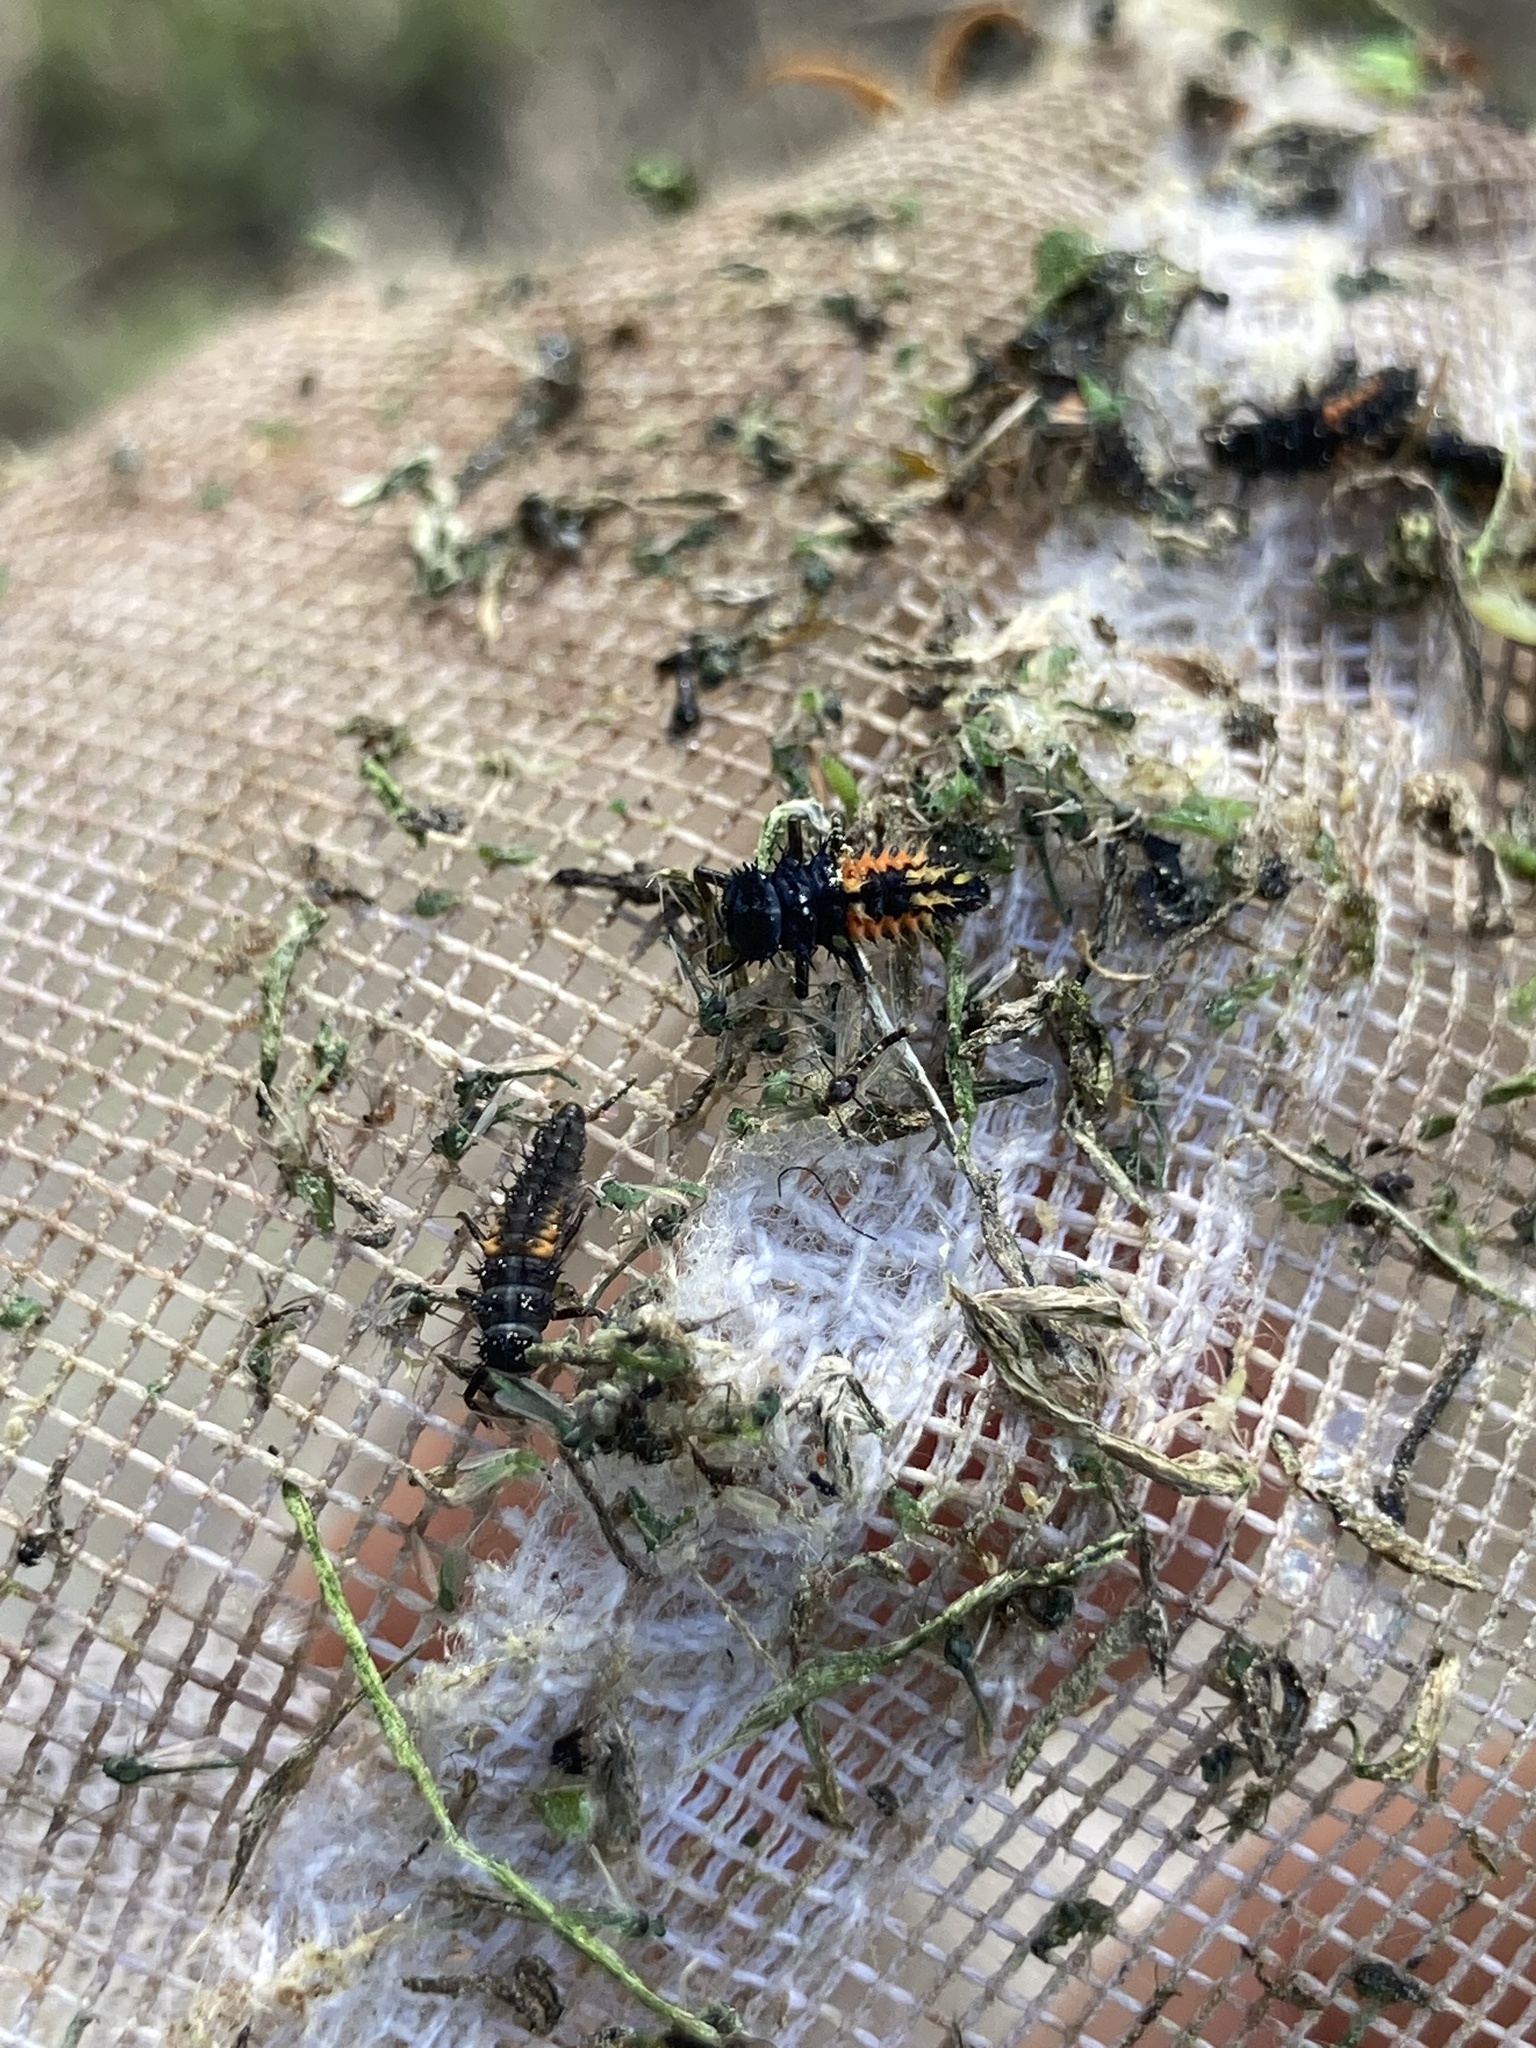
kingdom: Animalia
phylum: Arthropoda
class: Insecta
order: Coleoptera
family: Coccinellidae
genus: Harmonia
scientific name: Harmonia axyridis
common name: Harlequin ladybird
